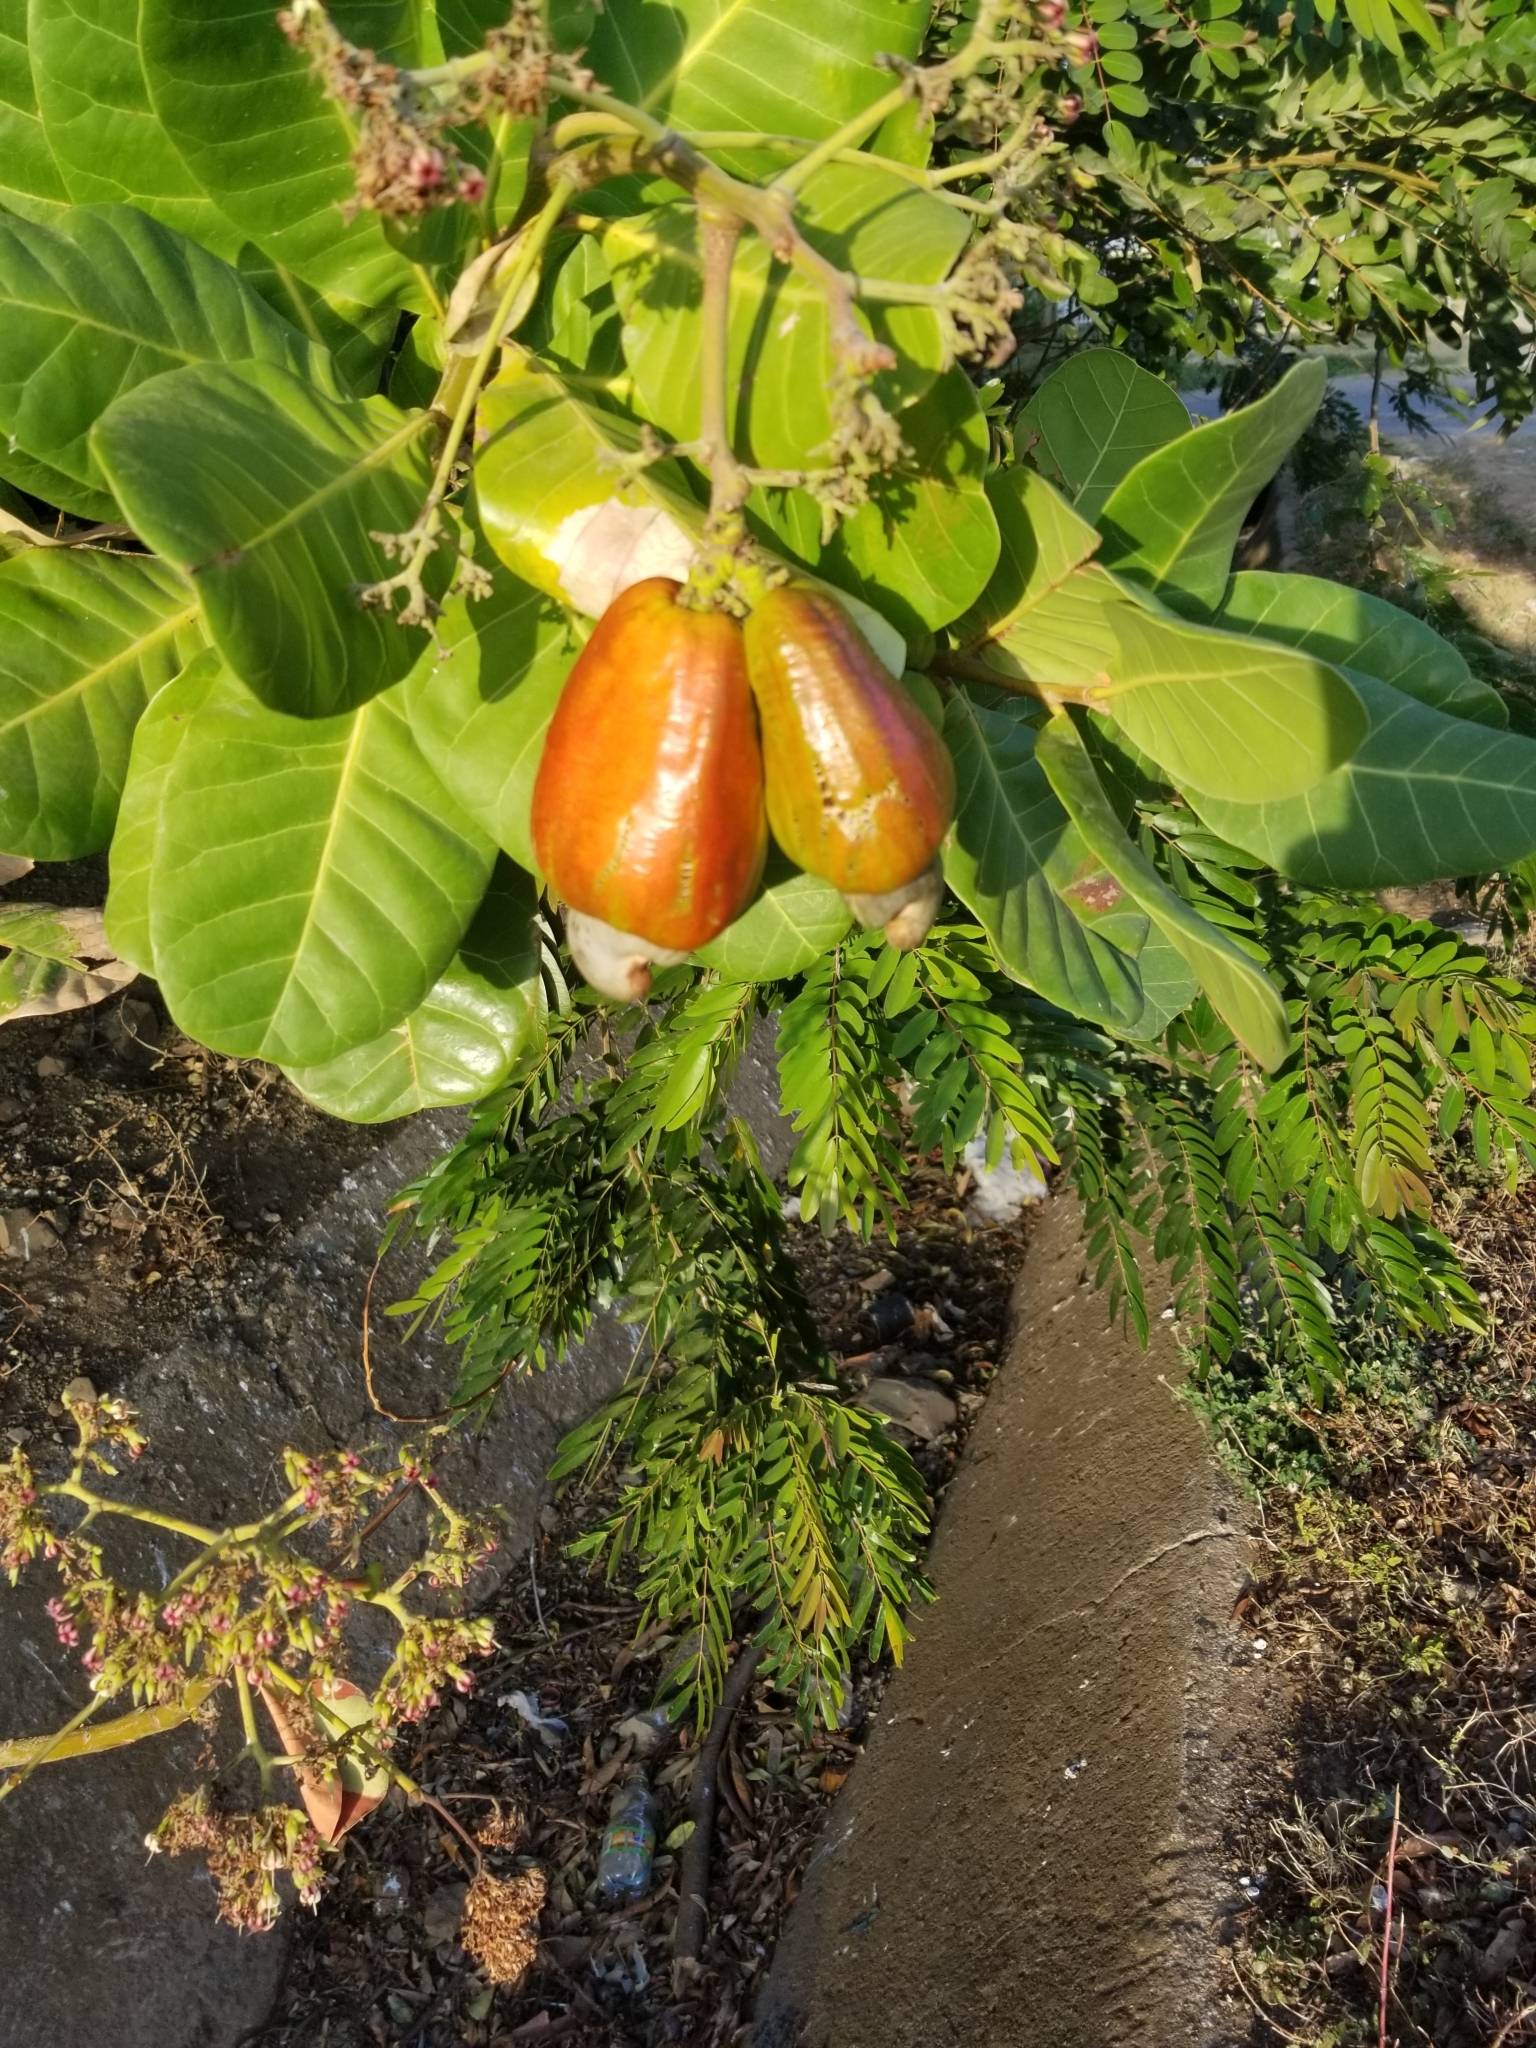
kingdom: Plantae
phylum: Tracheophyta
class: Magnoliopsida
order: Sapindales
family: Anacardiaceae
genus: Anacardium
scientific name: Anacardium occidentale
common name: Cashew
